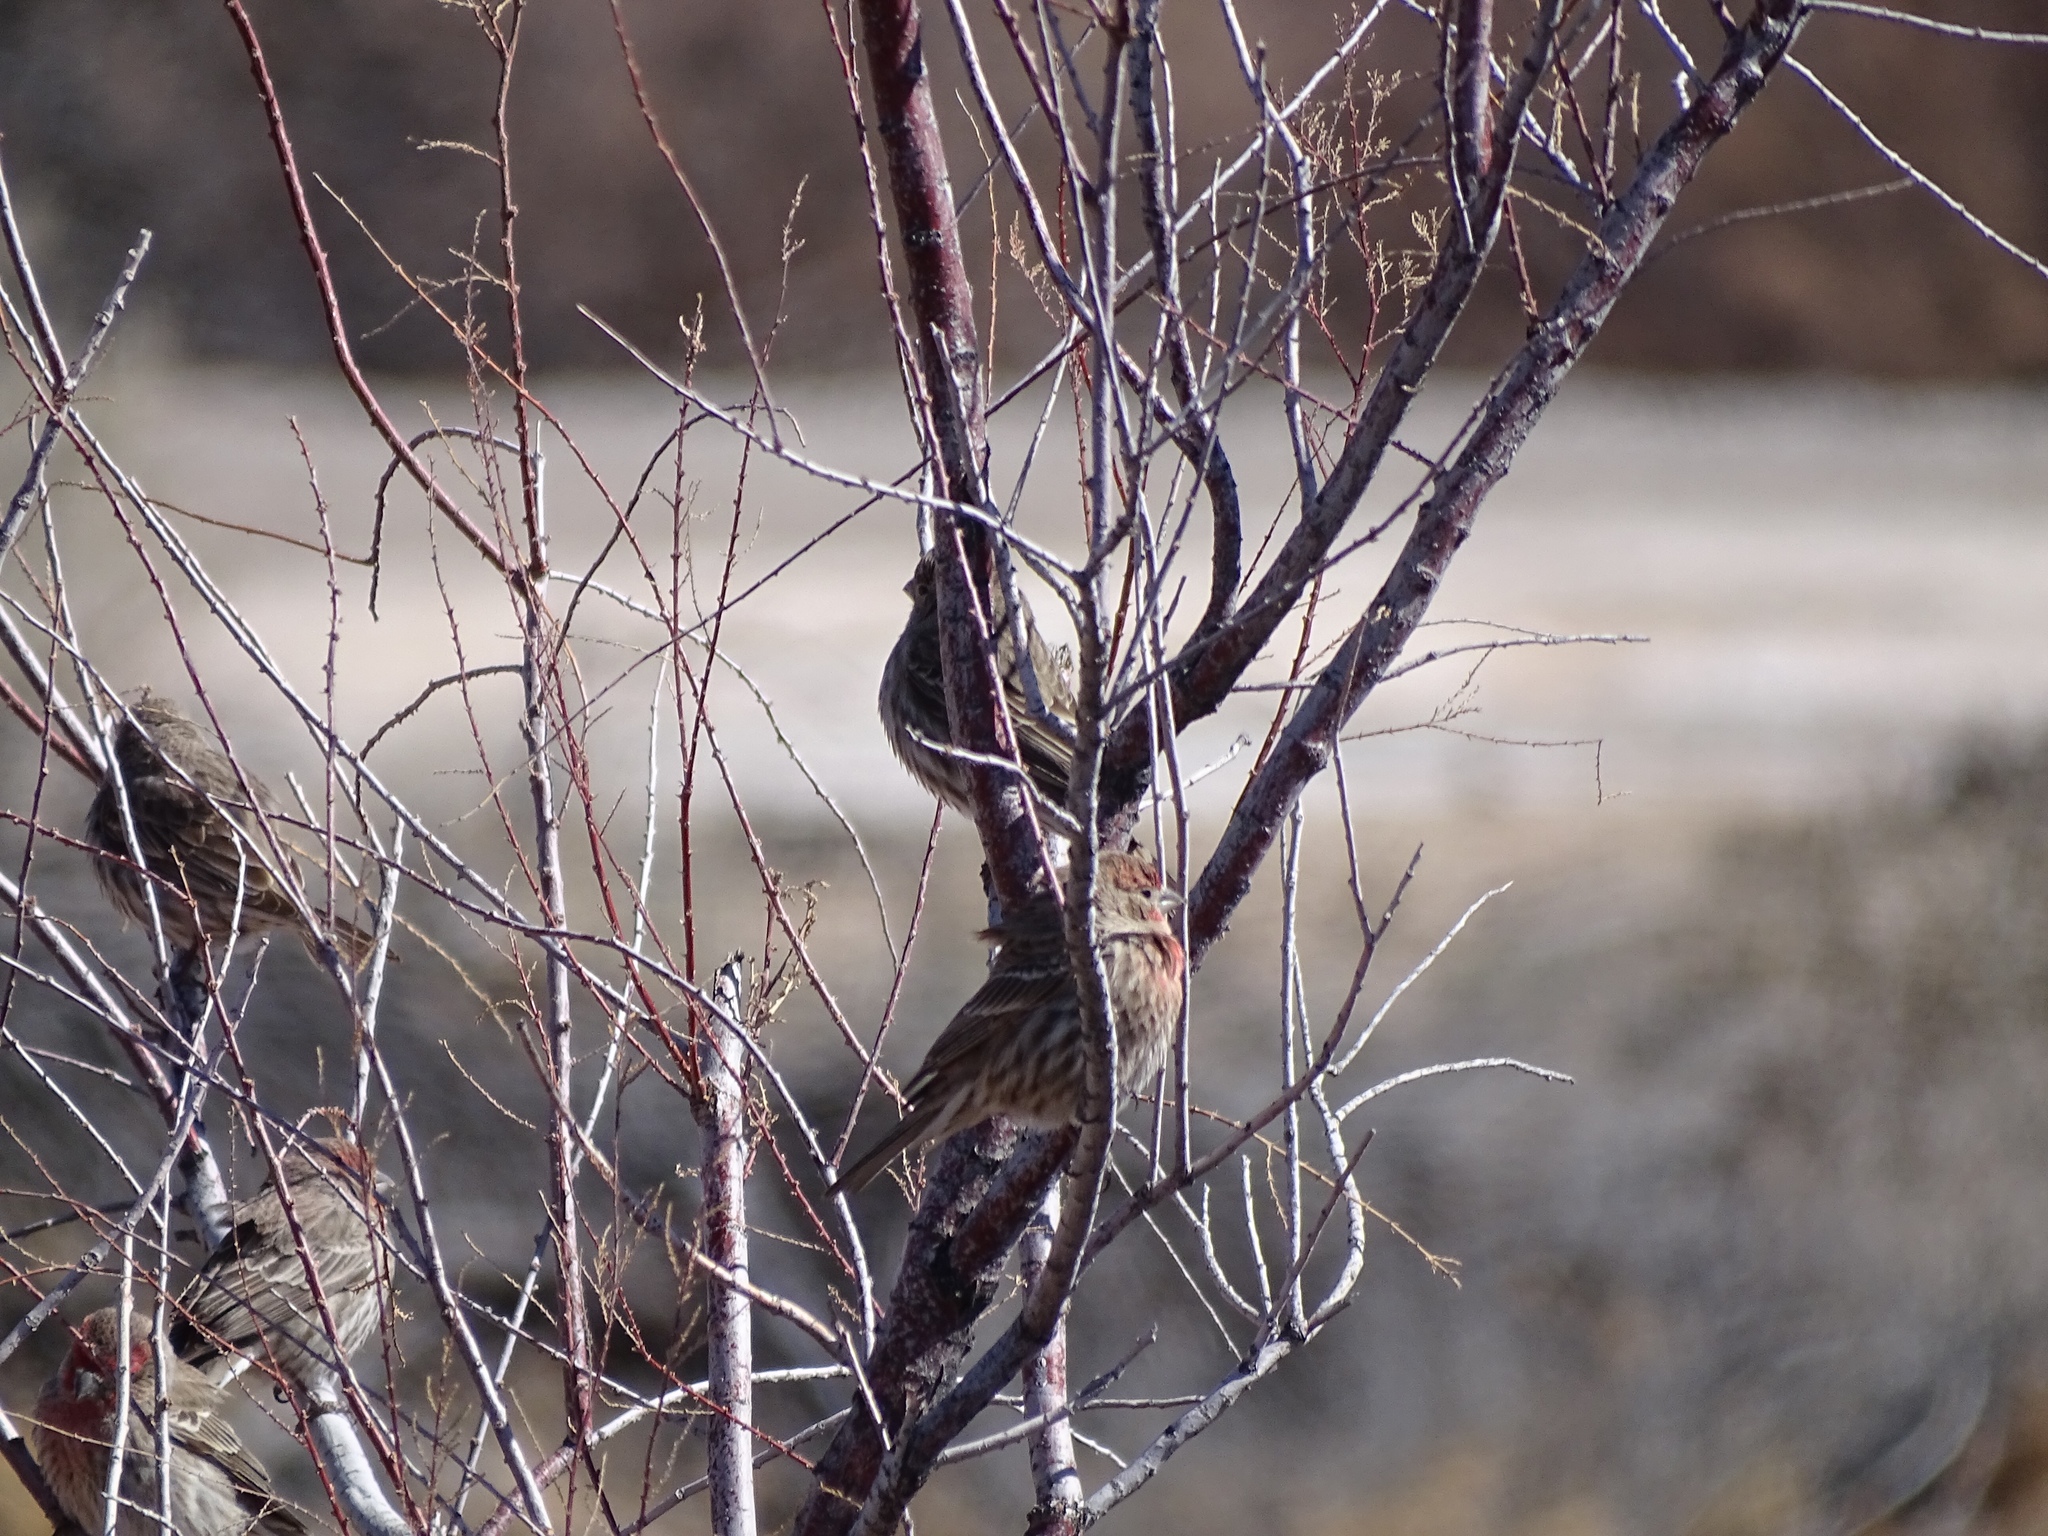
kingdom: Animalia
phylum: Chordata
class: Aves
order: Passeriformes
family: Fringillidae
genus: Haemorhous
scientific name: Haemorhous mexicanus
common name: House finch
